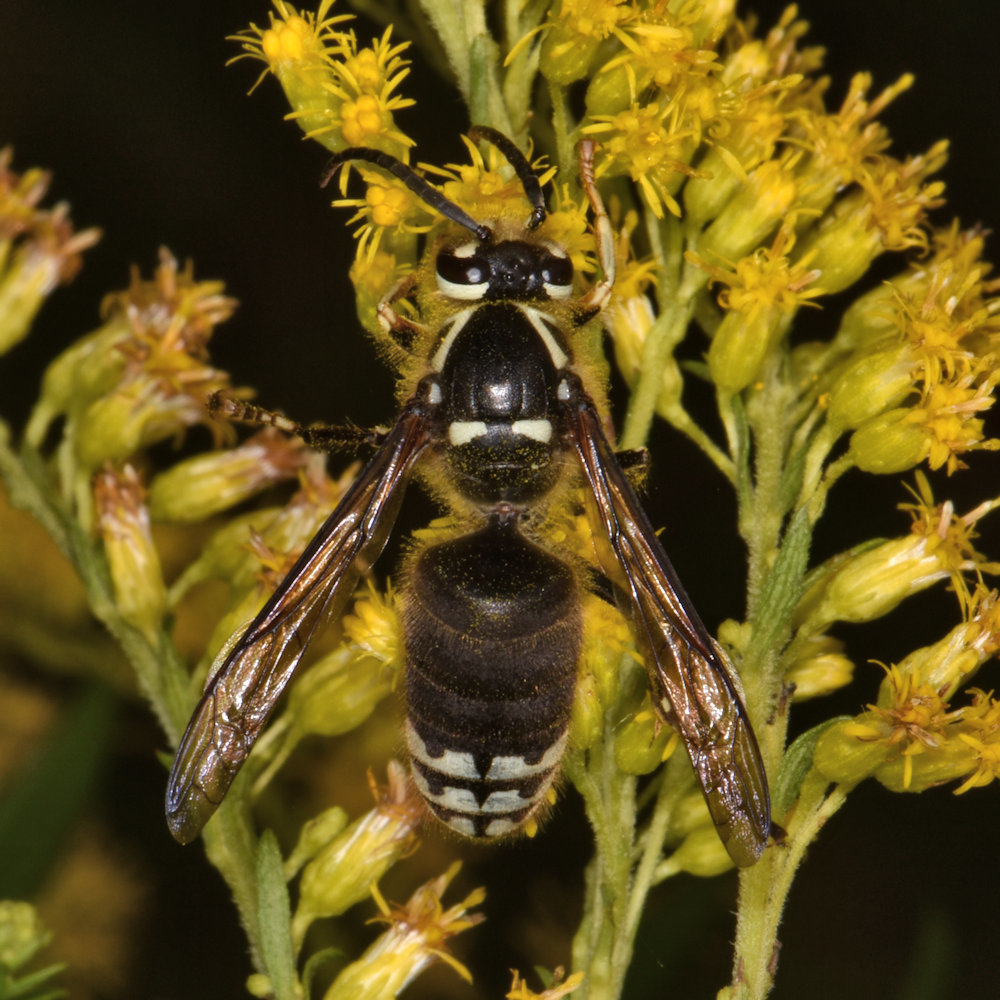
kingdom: Animalia
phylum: Arthropoda
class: Insecta
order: Hymenoptera
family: Vespidae
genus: Dolichovespula
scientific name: Dolichovespula maculata
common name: Bald-faced hornet
